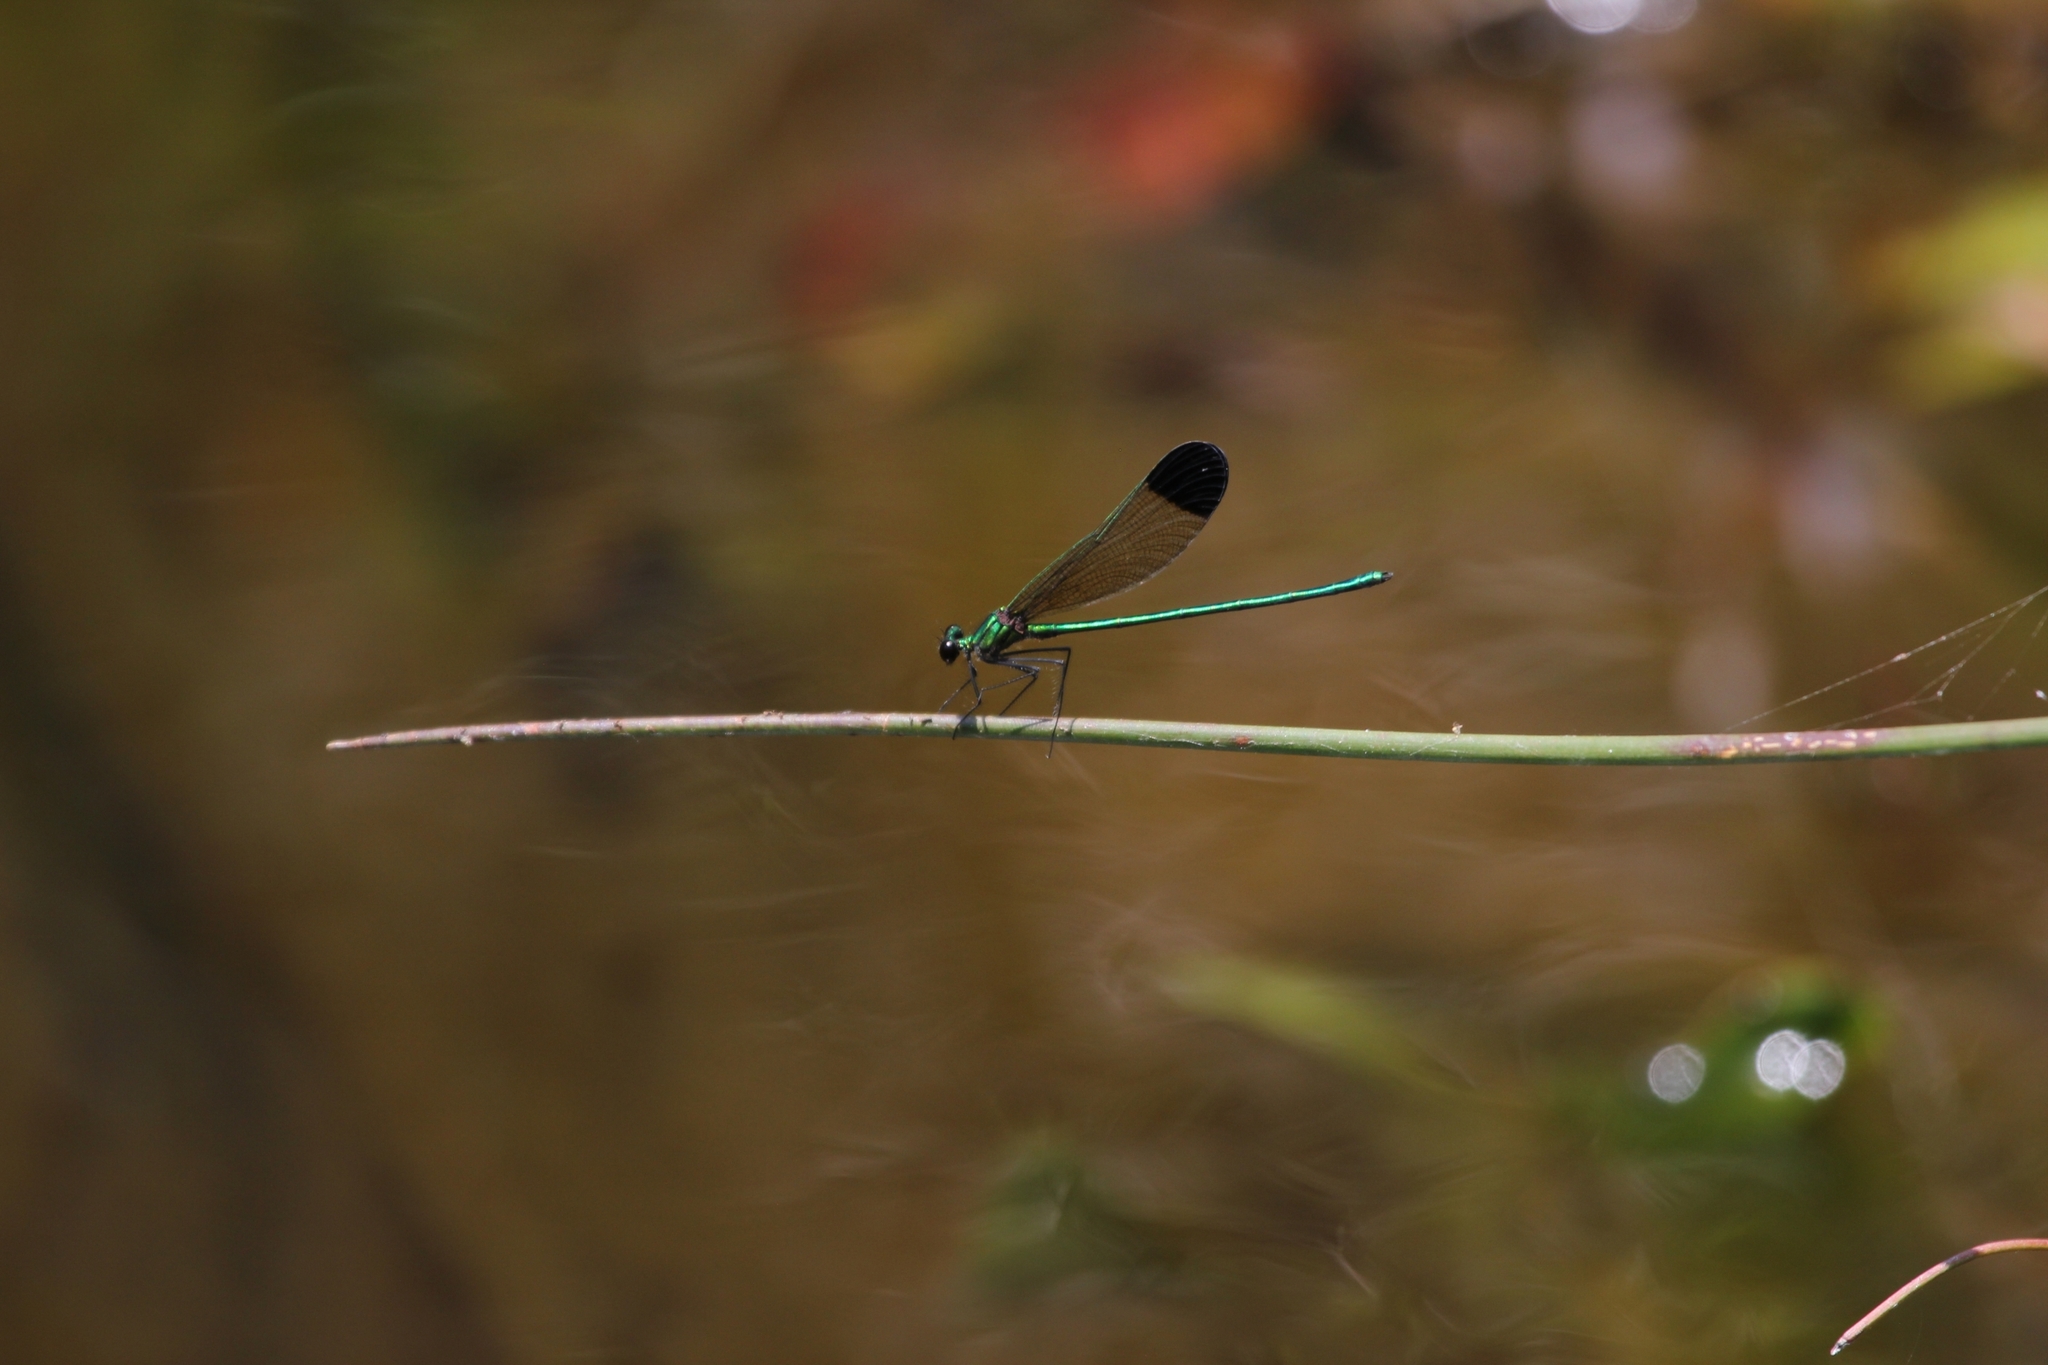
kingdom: Animalia
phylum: Arthropoda
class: Insecta
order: Odonata
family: Calopterygidae
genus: Calopteryx
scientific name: Calopteryx dimidiata
